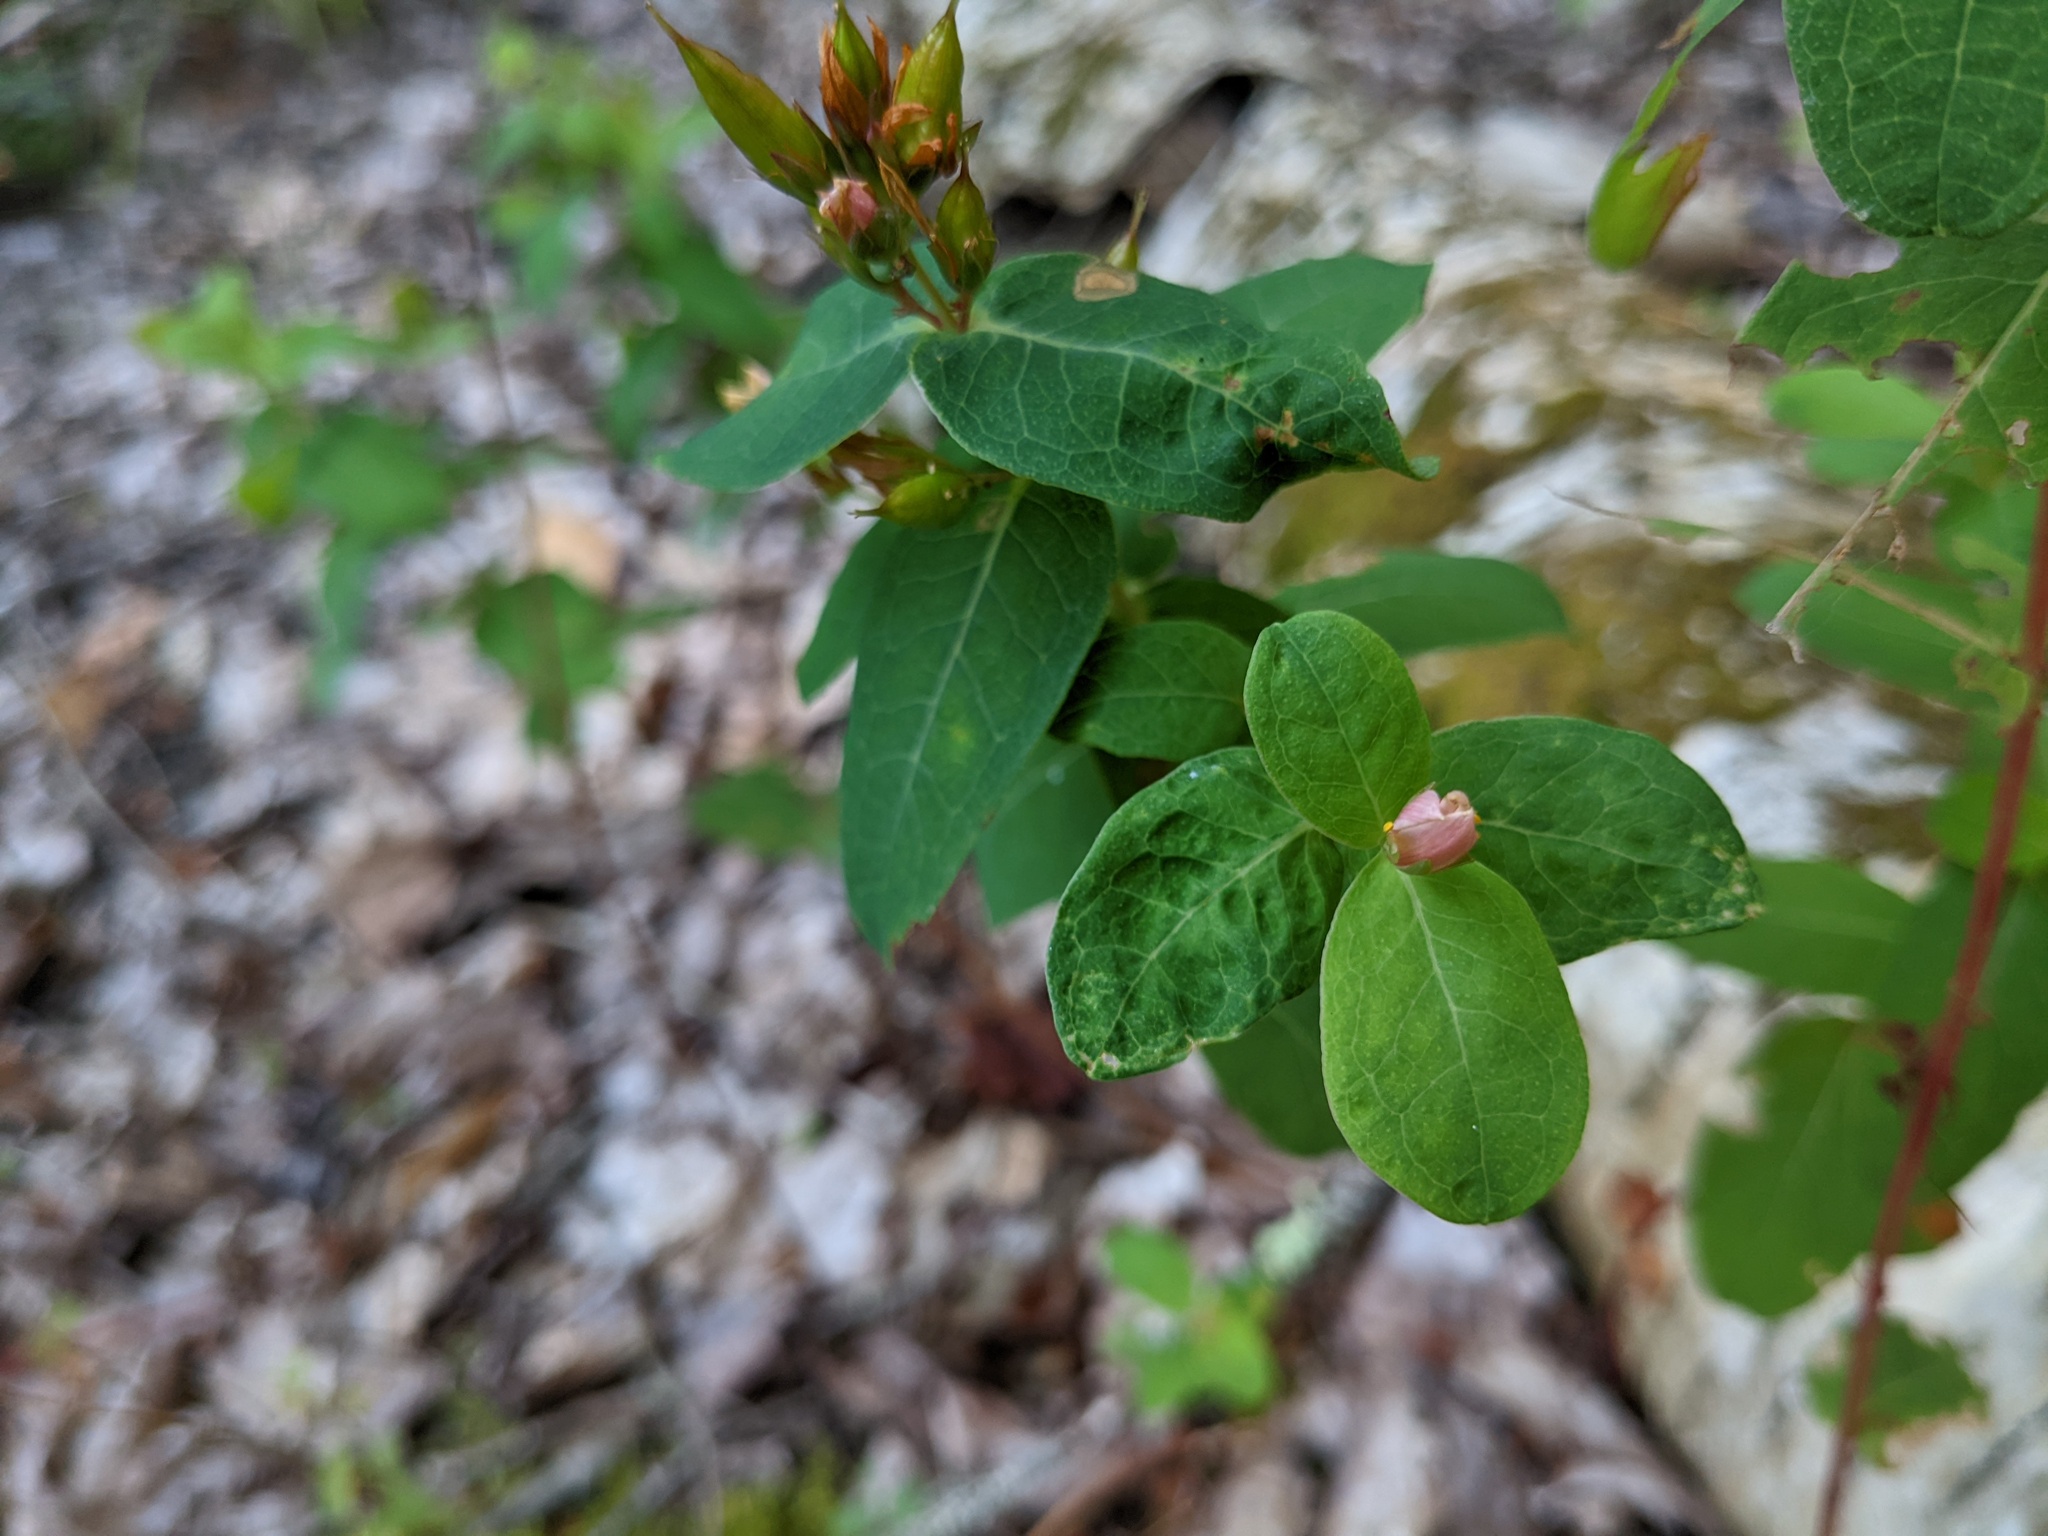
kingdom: Plantae
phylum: Tracheophyta
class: Magnoliopsida
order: Malpighiales
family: Hypericaceae
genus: Triadenum
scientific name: Triadenum virginicum
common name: Marsh st. john's-wort
